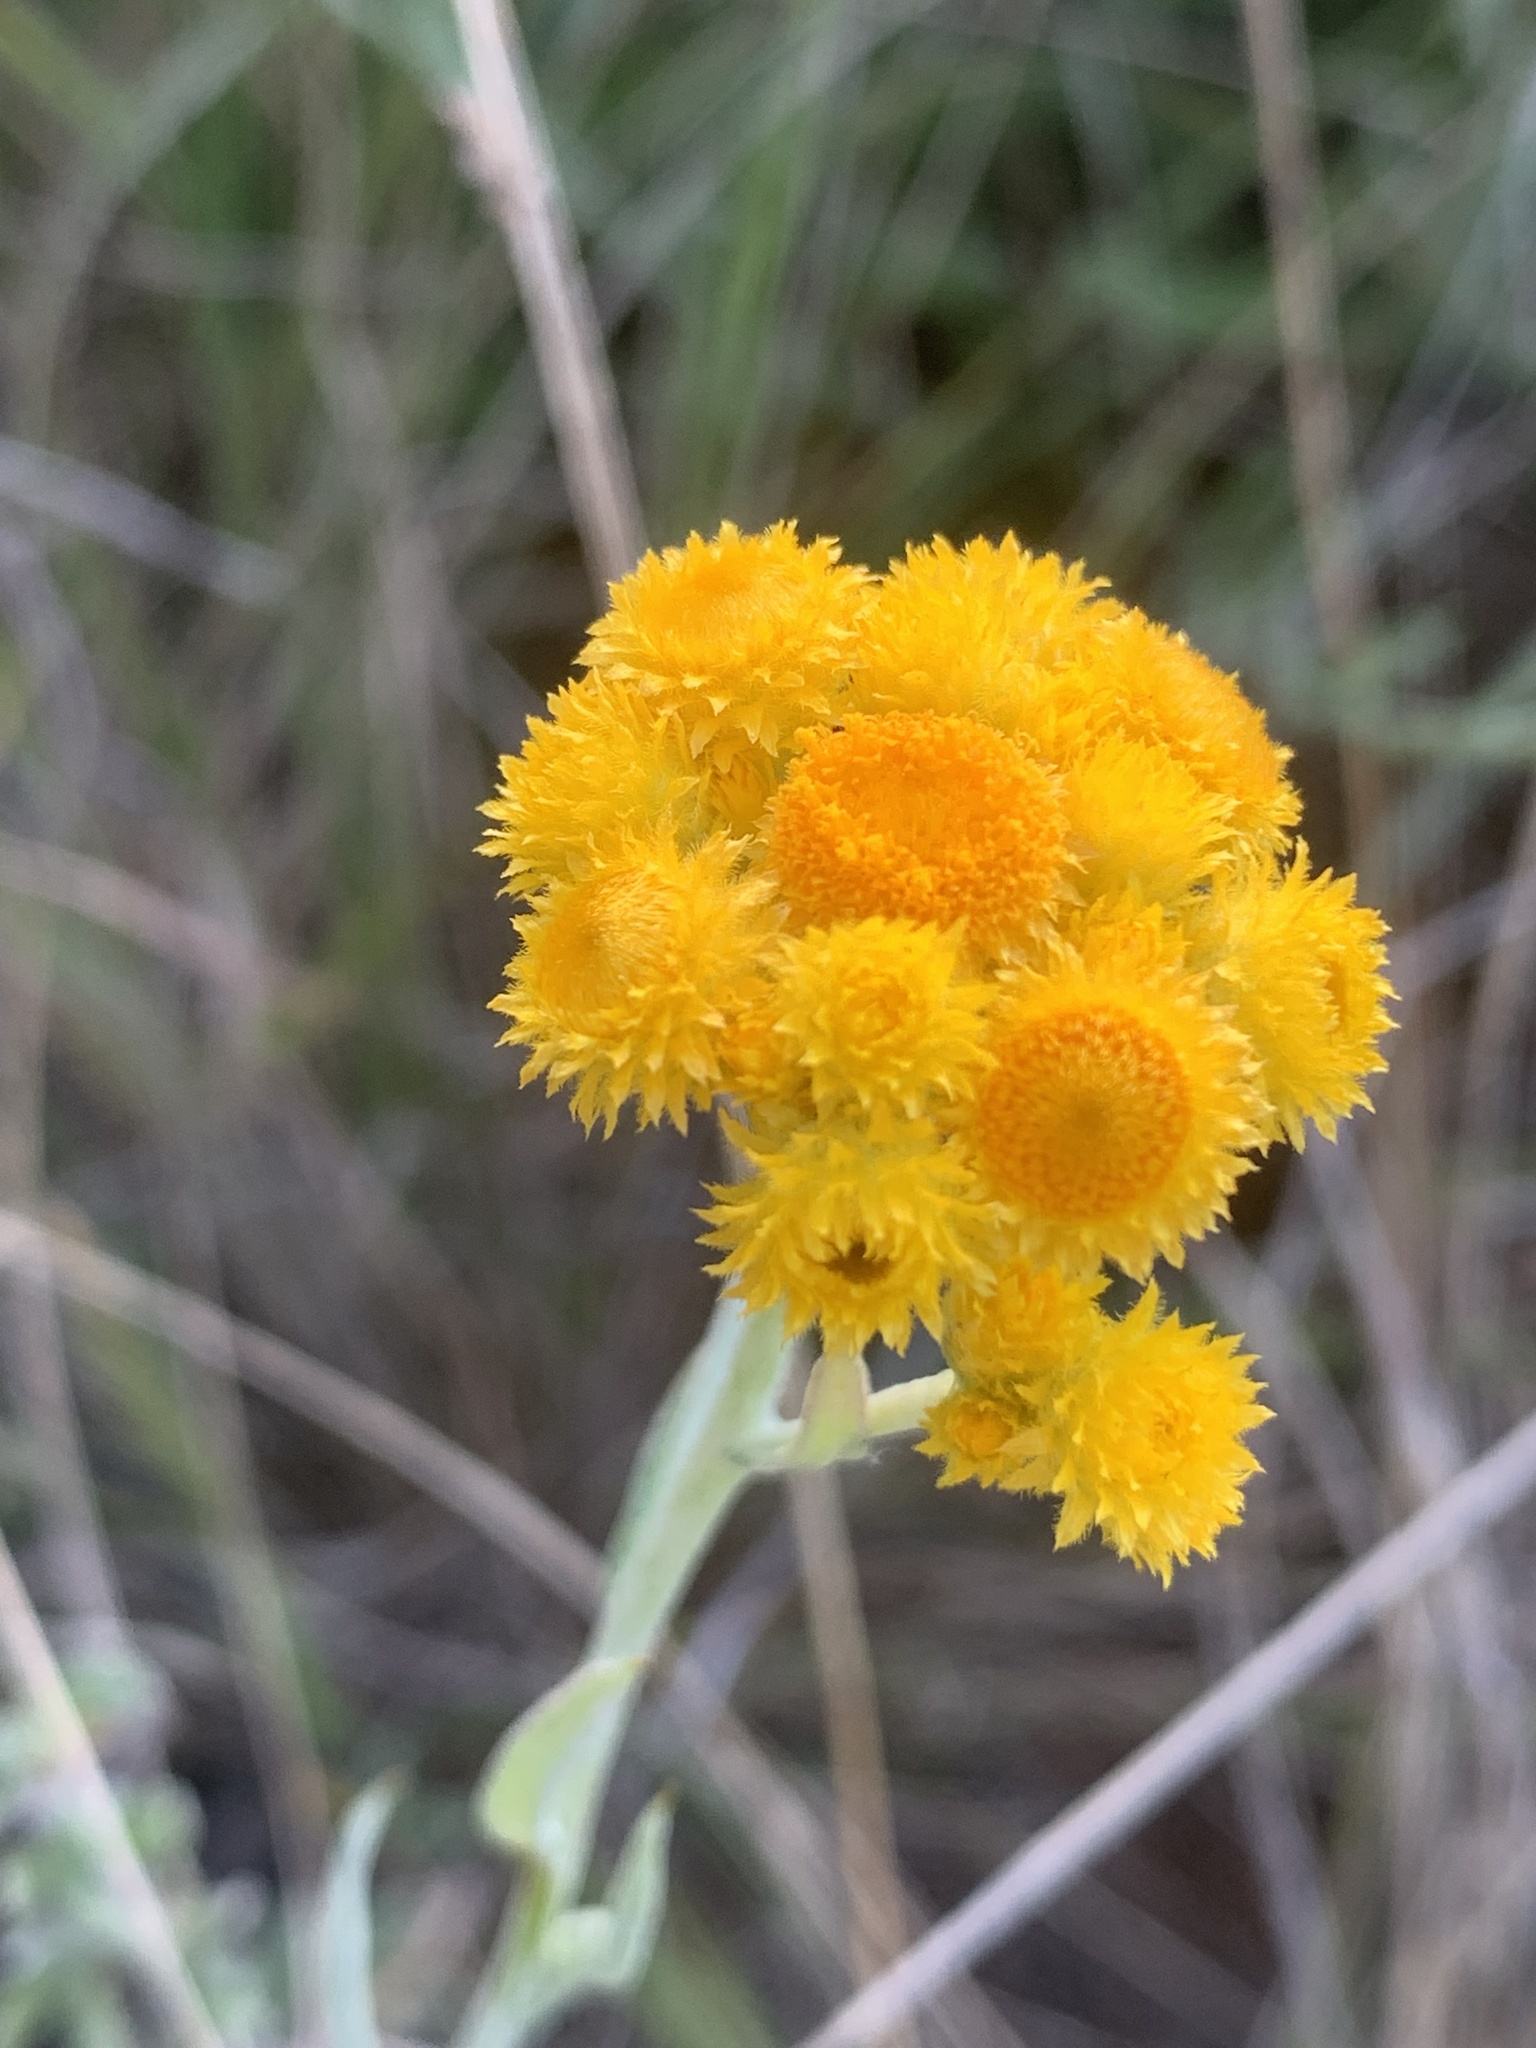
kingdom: Plantae
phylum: Tracheophyta
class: Magnoliopsida
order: Asterales
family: Asteraceae
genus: Chrysocephalum
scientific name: Chrysocephalum apiculatum
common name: Common everlasting
